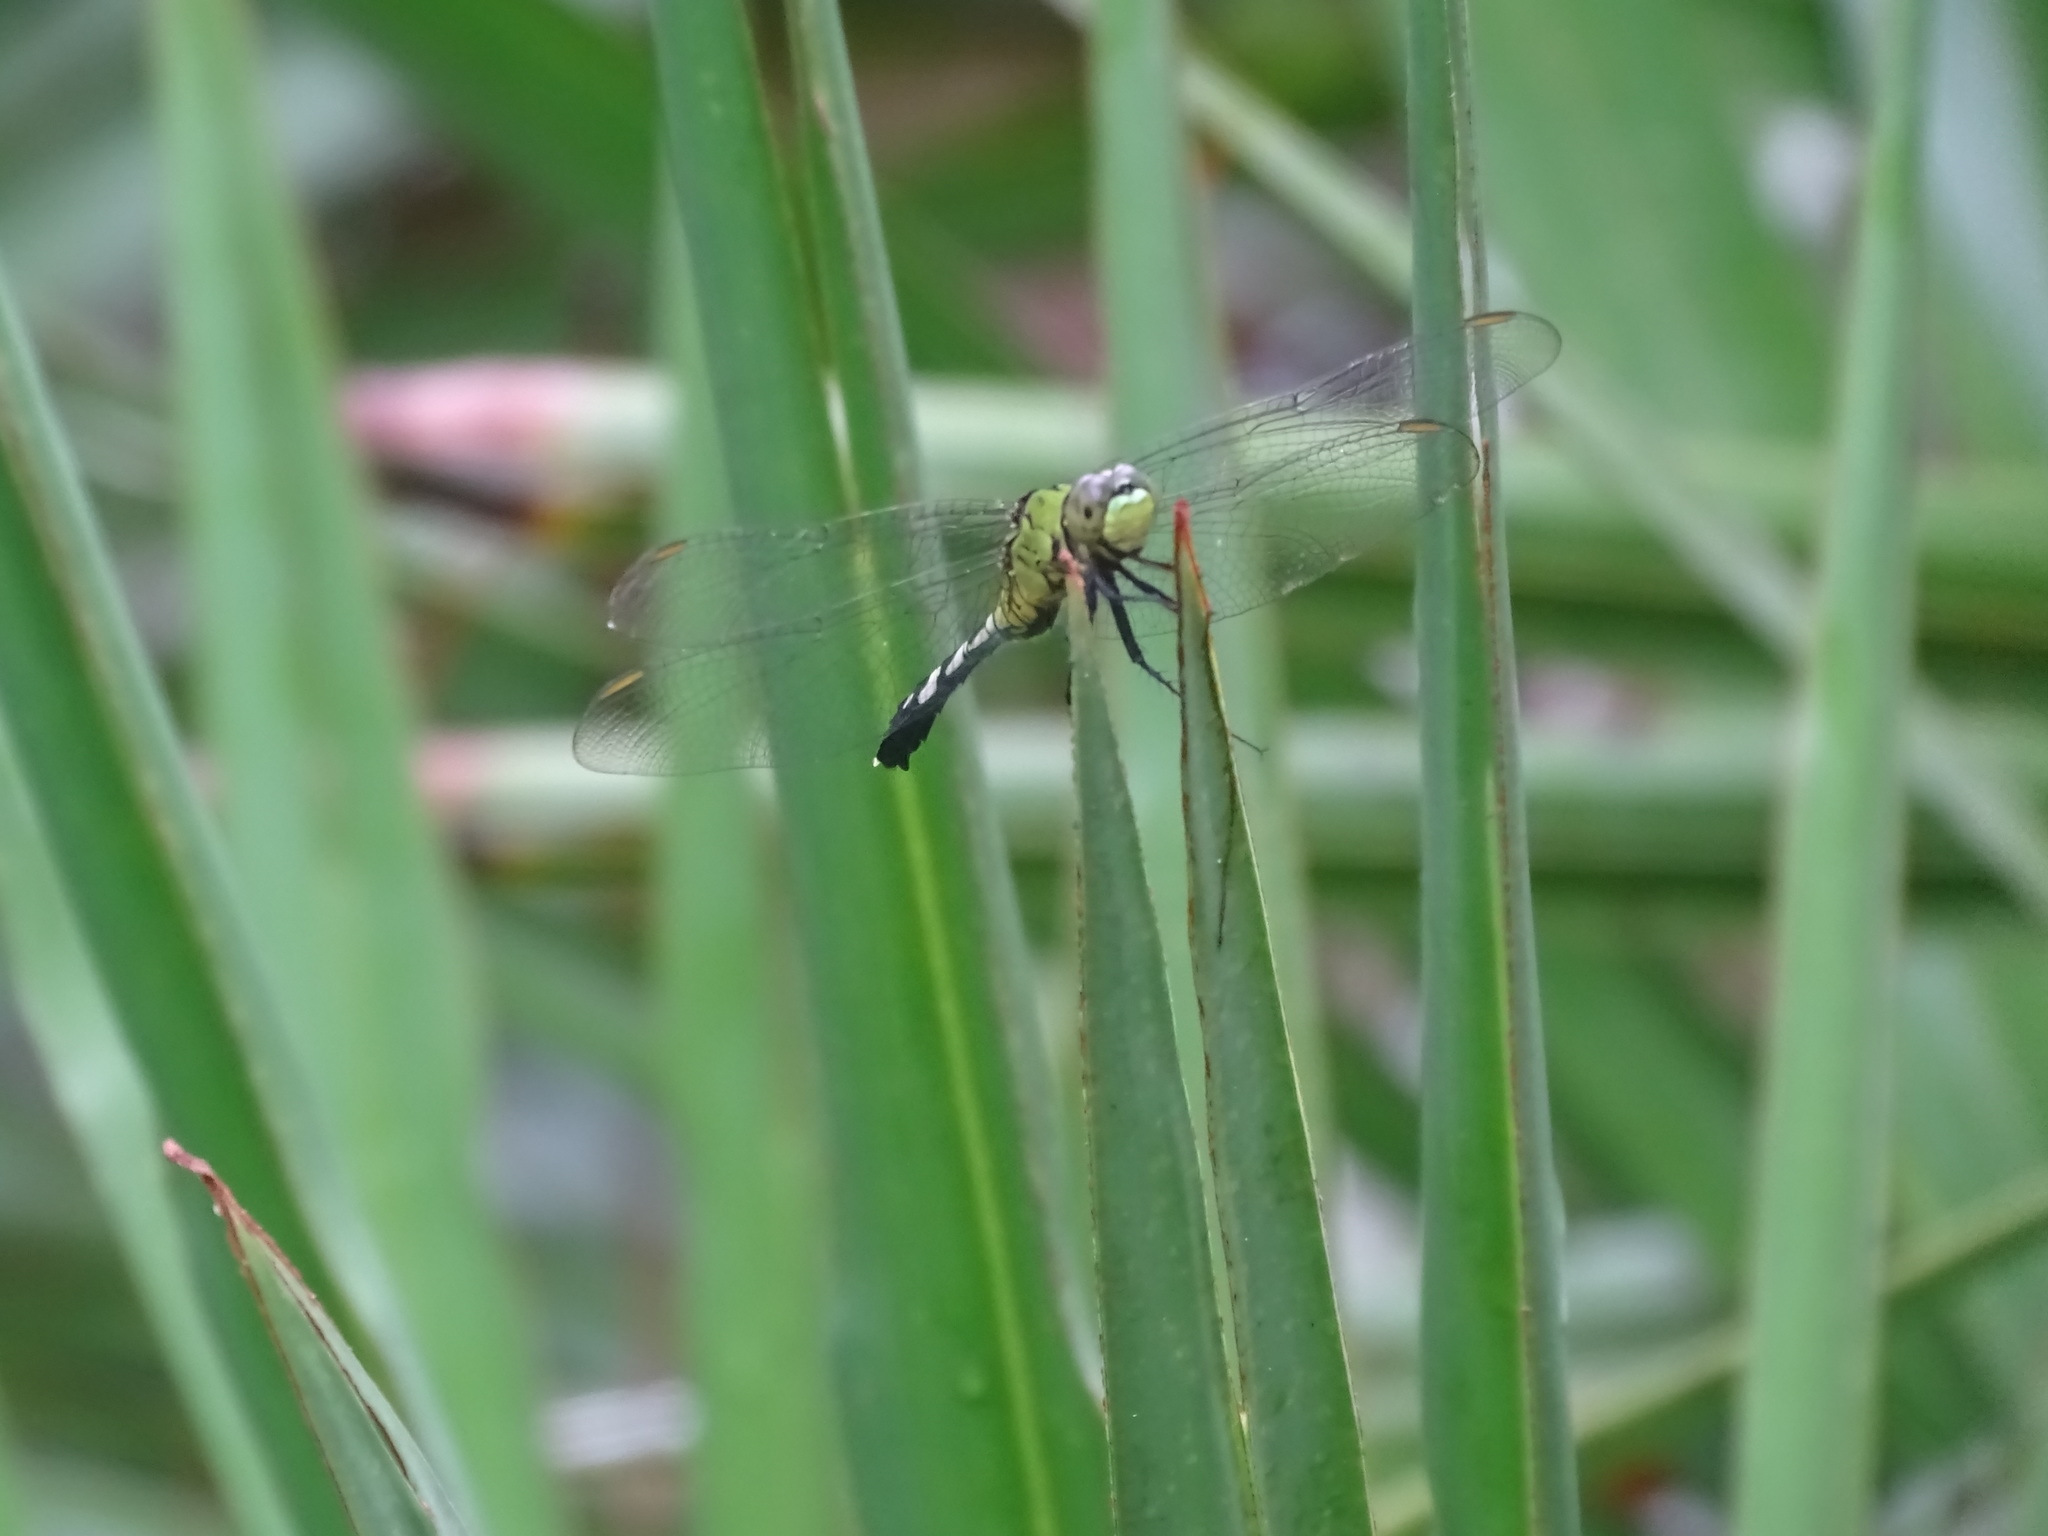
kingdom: Animalia
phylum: Arthropoda
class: Insecta
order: Odonata
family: Libellulidae
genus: Erythemis
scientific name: Erythemis simplicicollis
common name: Eastern pondhawk
